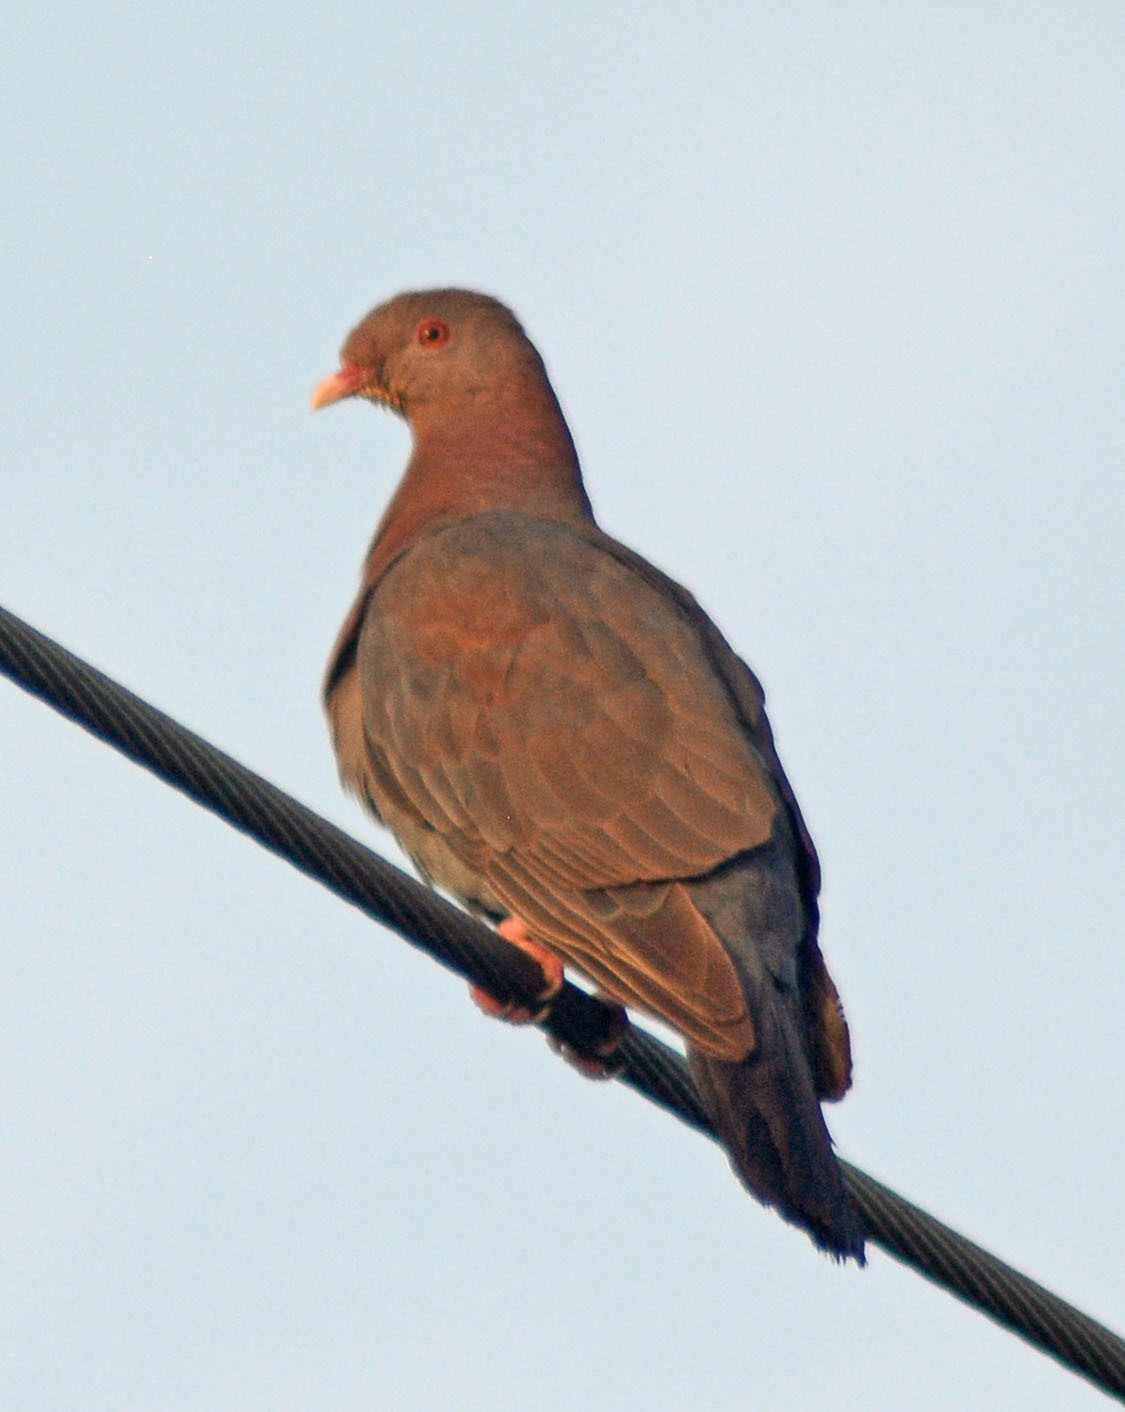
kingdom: Animalia
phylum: Chordata
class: Aves
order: Columbiformes
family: Columbidae
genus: Patagioenas
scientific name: Patagioenas flavirostris
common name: Red-billed pigeon
